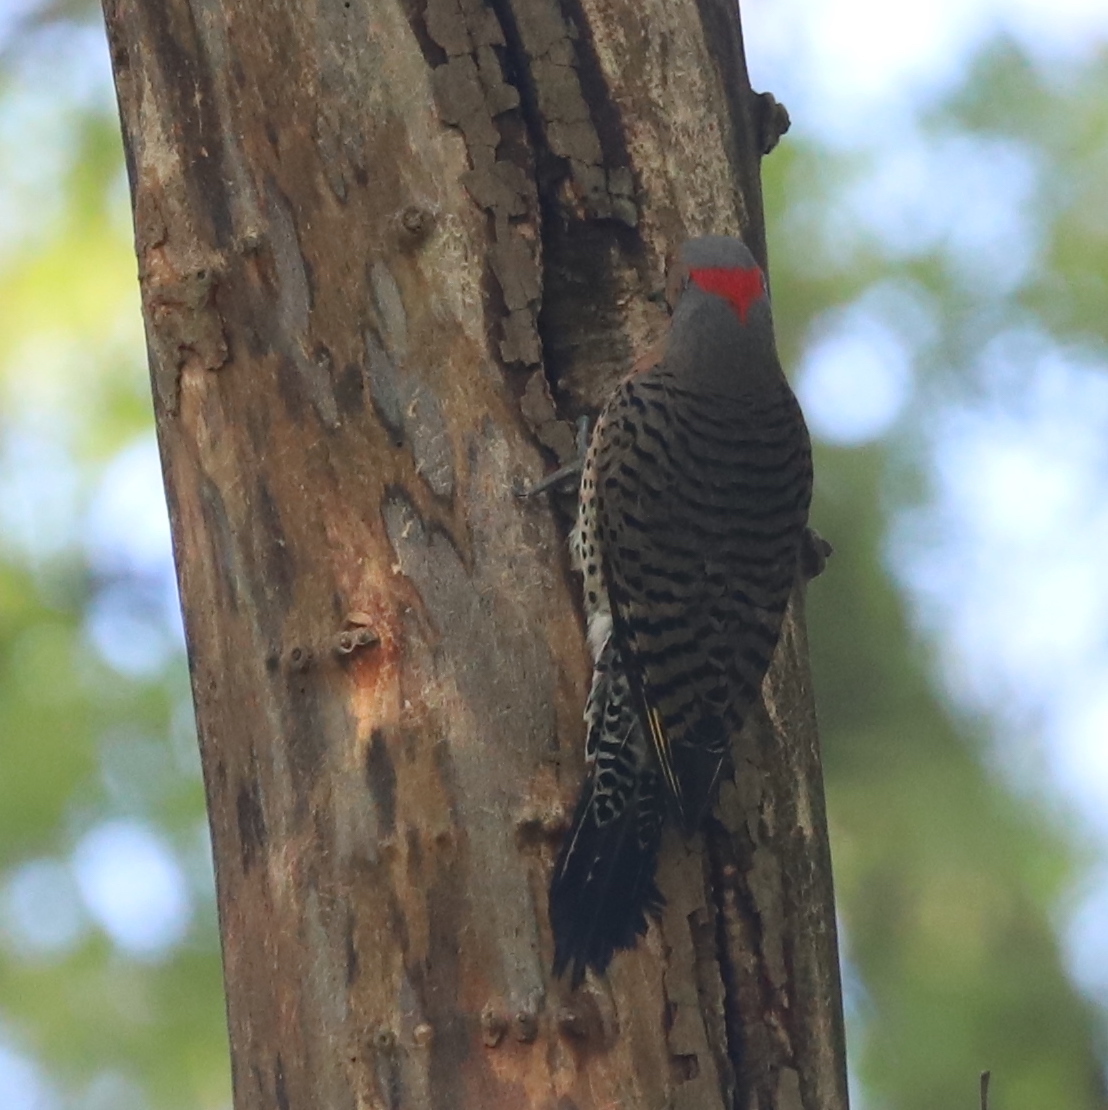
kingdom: Animalia
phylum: Chordata
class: Aves
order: Piciformes
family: Picidae
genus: Colaptes
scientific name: Colaptes auratus
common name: Northern flicker
